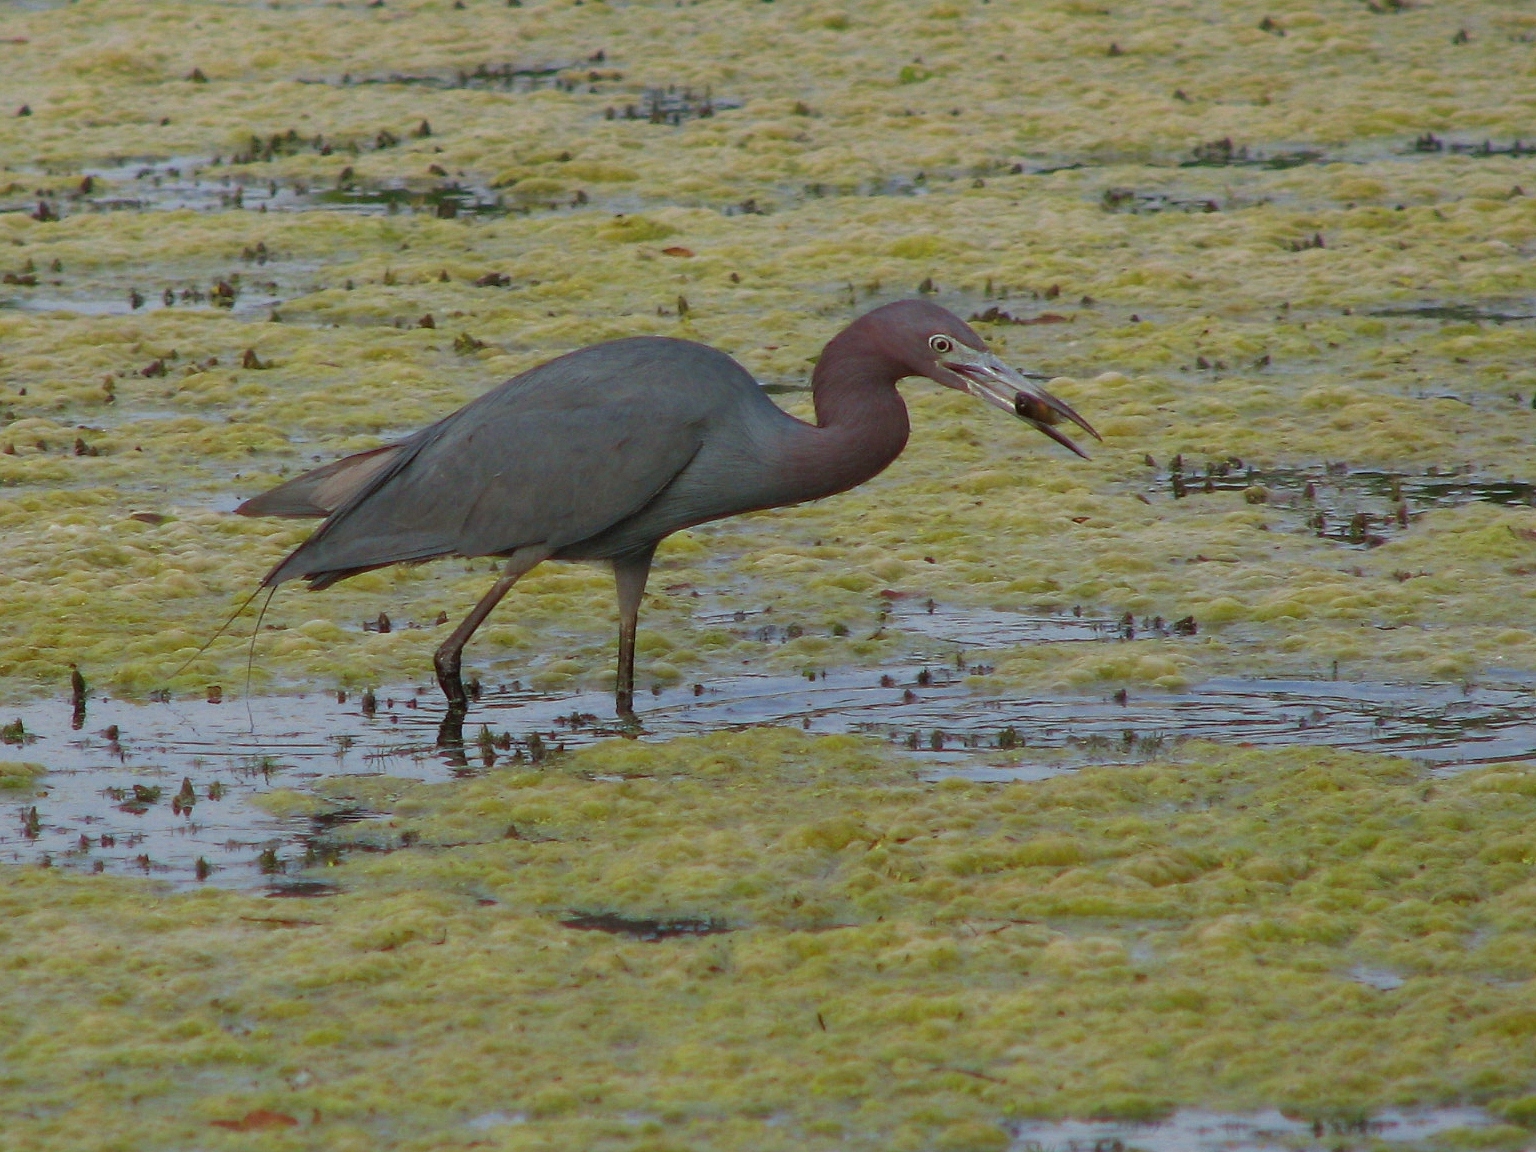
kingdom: Animalia
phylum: Chordata
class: Aves
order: Pelecaniformes
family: Ardeidae
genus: Egretta
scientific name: Egretta caerulea
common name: Little blue heron
